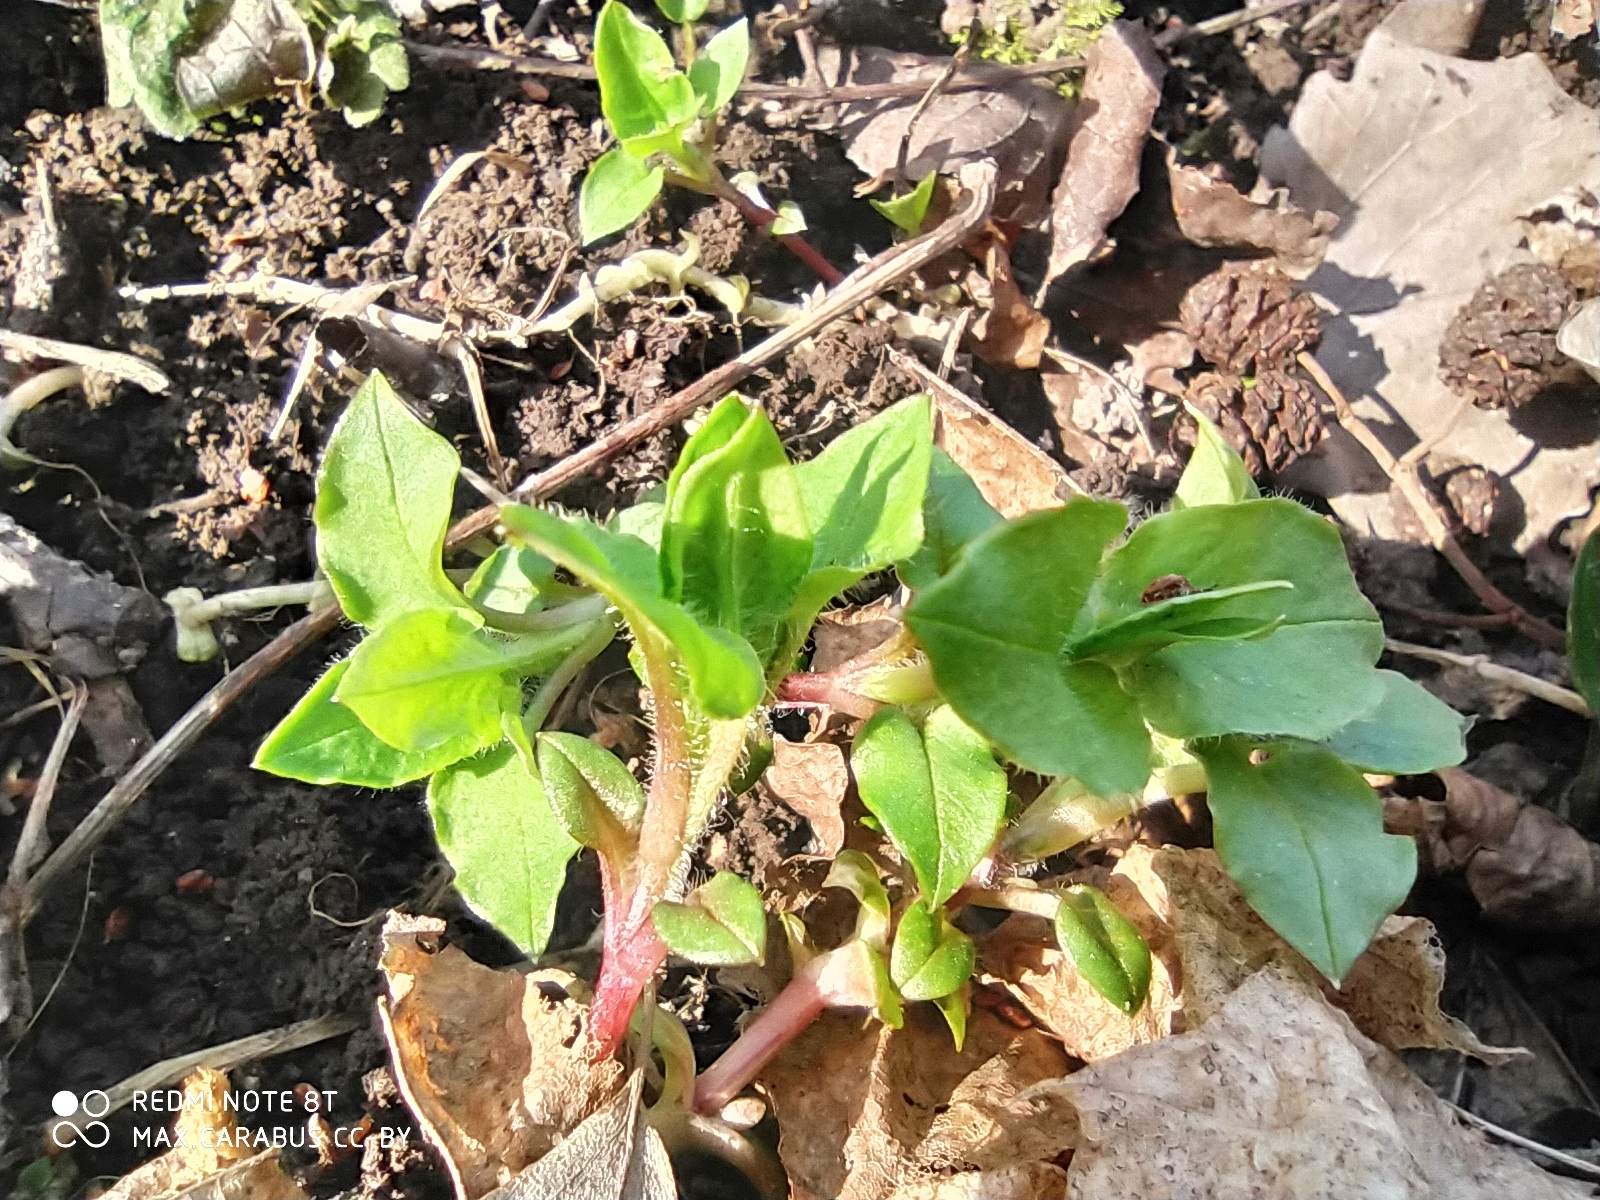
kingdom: Plantae
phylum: Tracheophyta
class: Magnoliopsida
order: Caryophyllales
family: Caryophyllaceae
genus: Stellaria
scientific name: Stellaria nemorum
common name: Wood stitchwort
